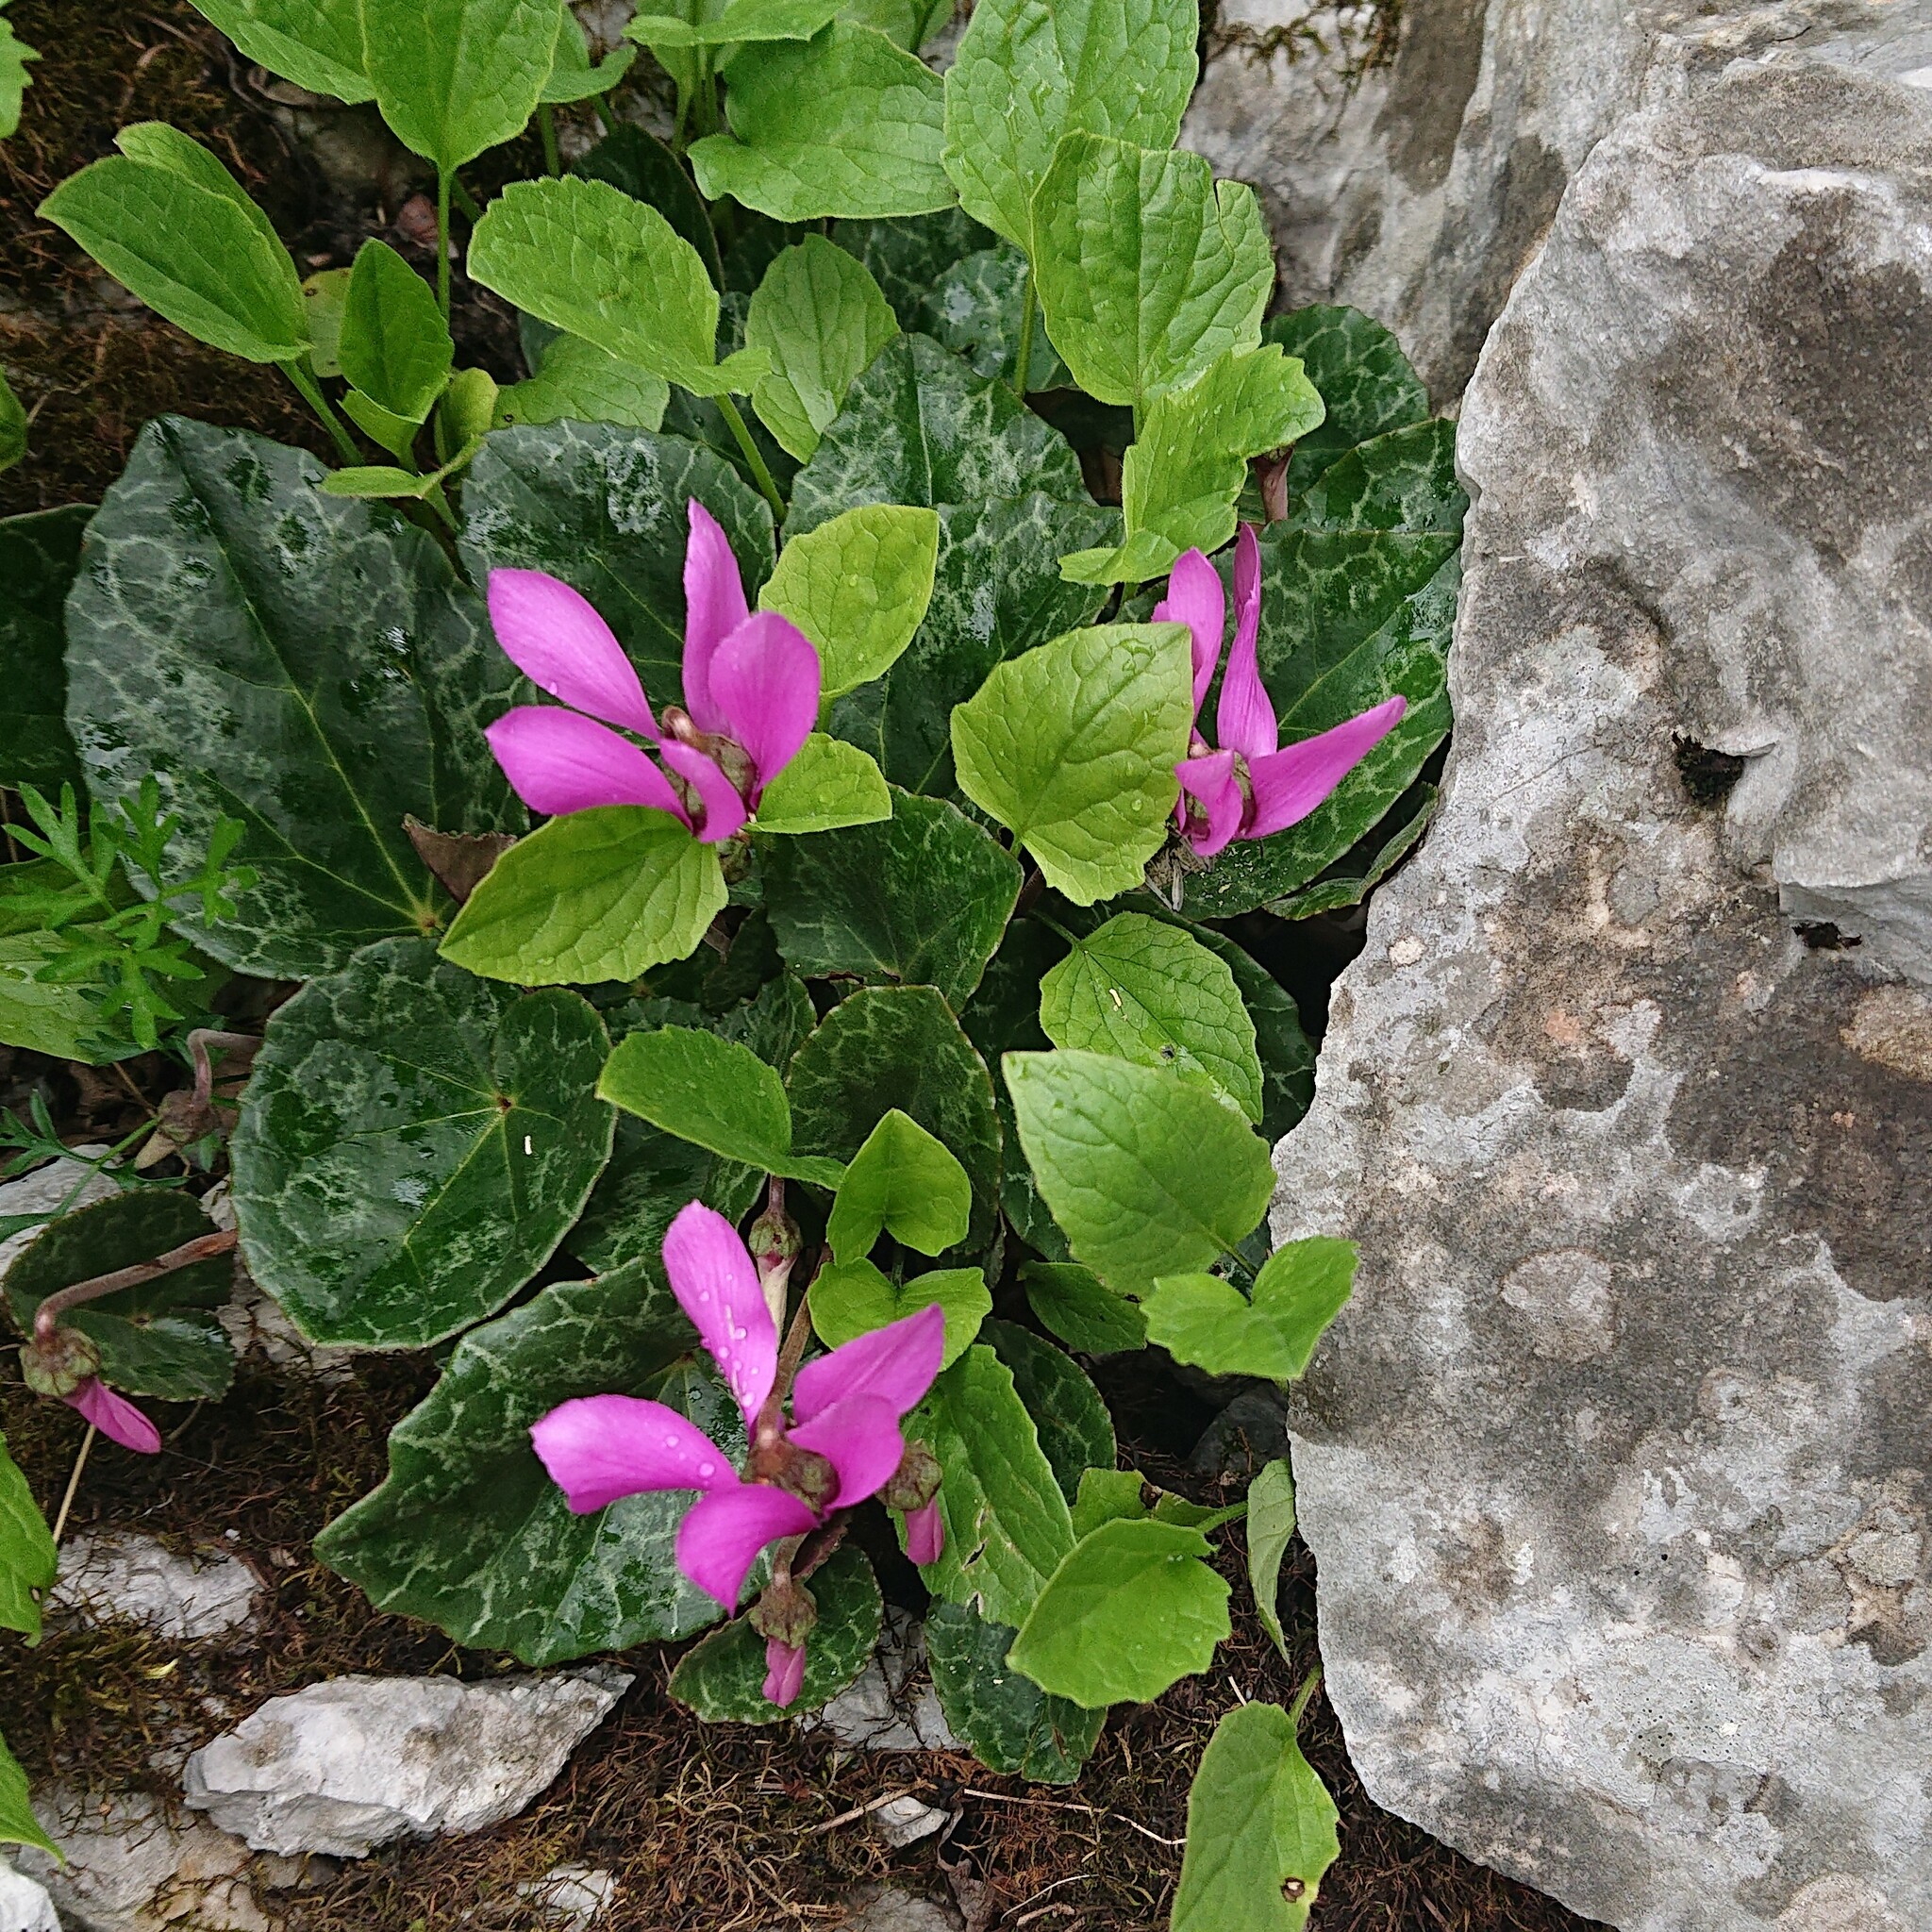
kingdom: Plantae
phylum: Tracheophyta
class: Magnoliopsida
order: Ericales
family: Primulaceae
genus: Cyclamen
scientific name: Cyclamen purpurascens
